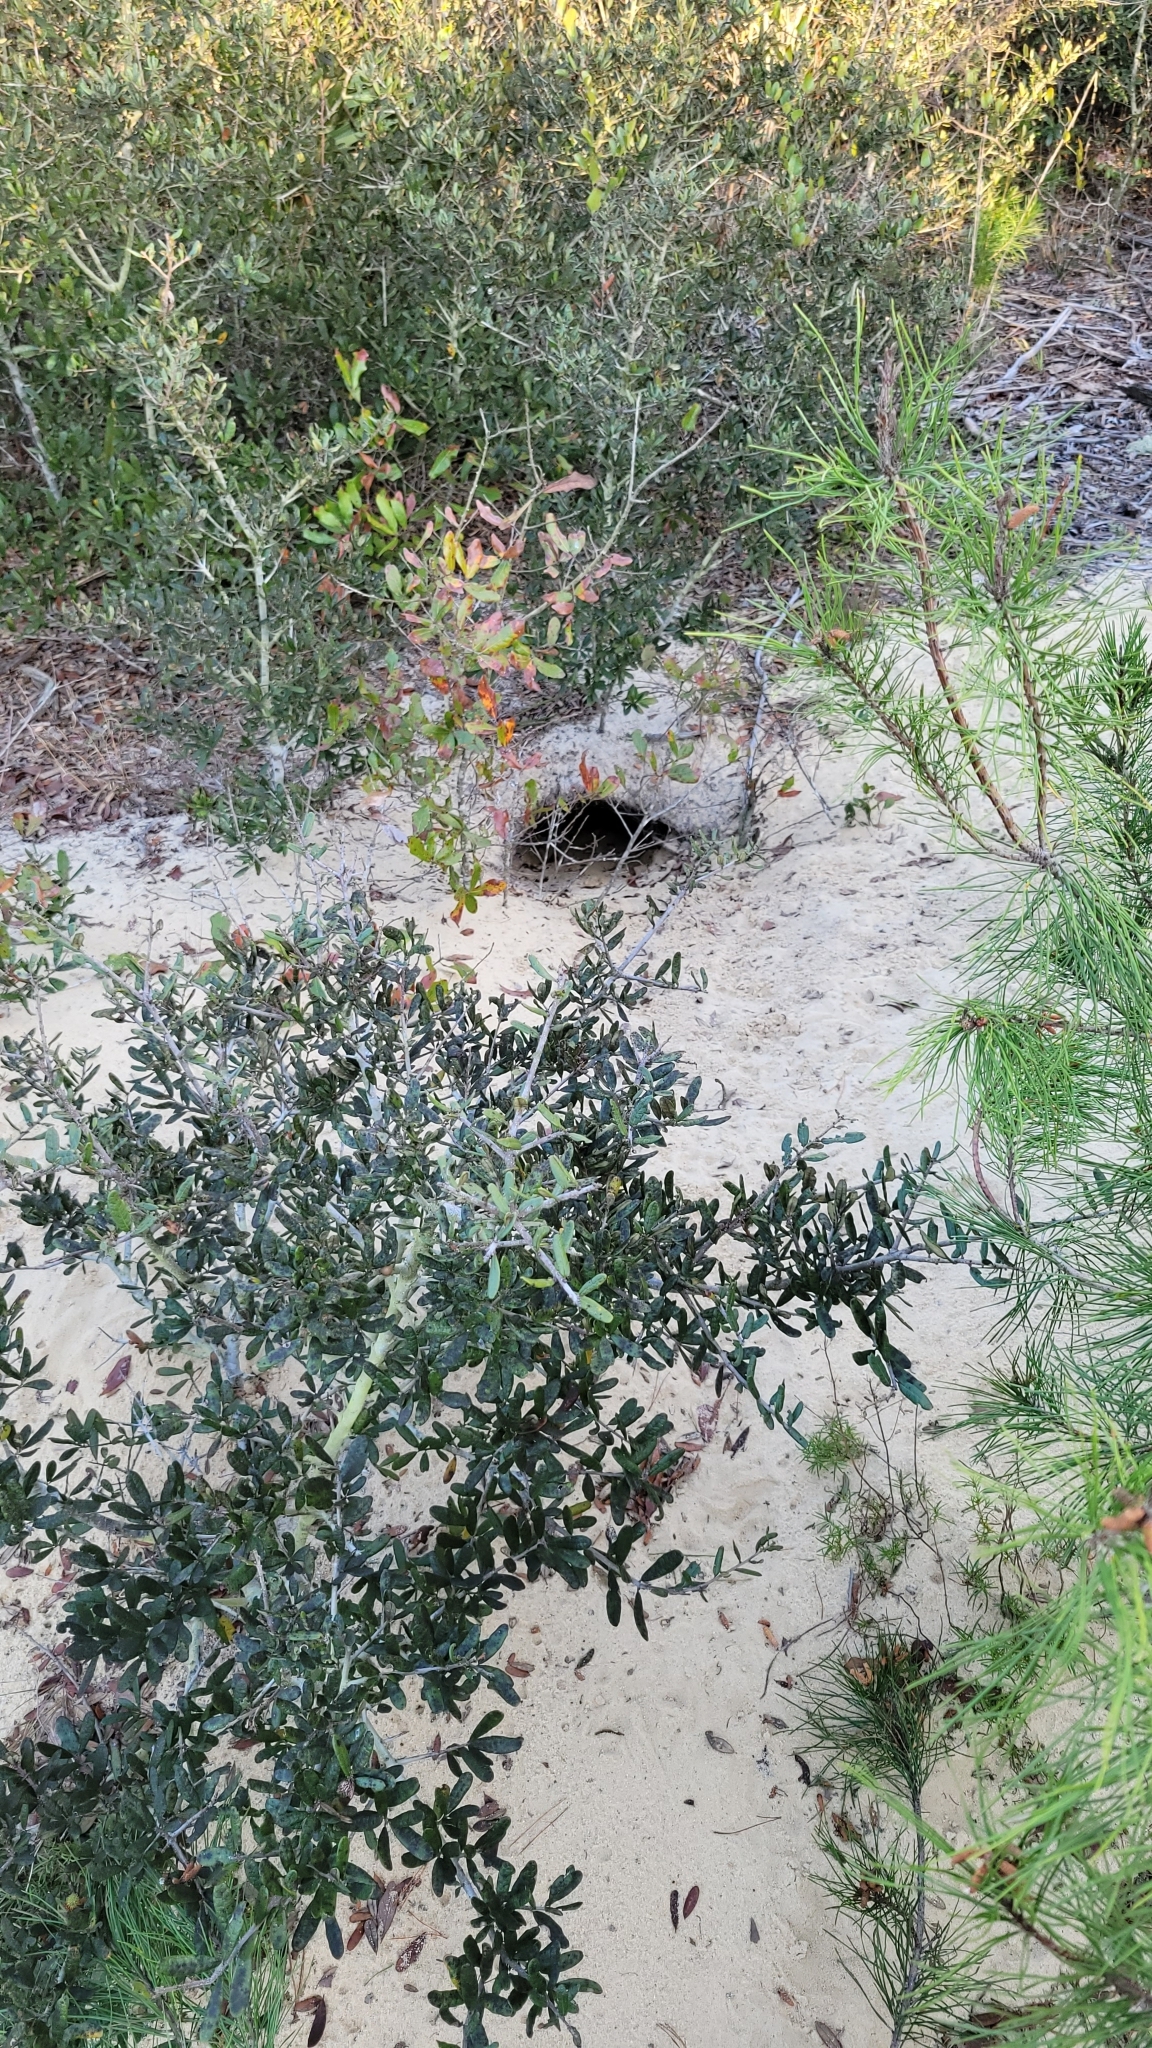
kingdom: Animalia
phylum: Chordata
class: Testudines
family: Testudinidae
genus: Gopherus
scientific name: Gopherus polyphemus
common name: Florida gopher tortoise
